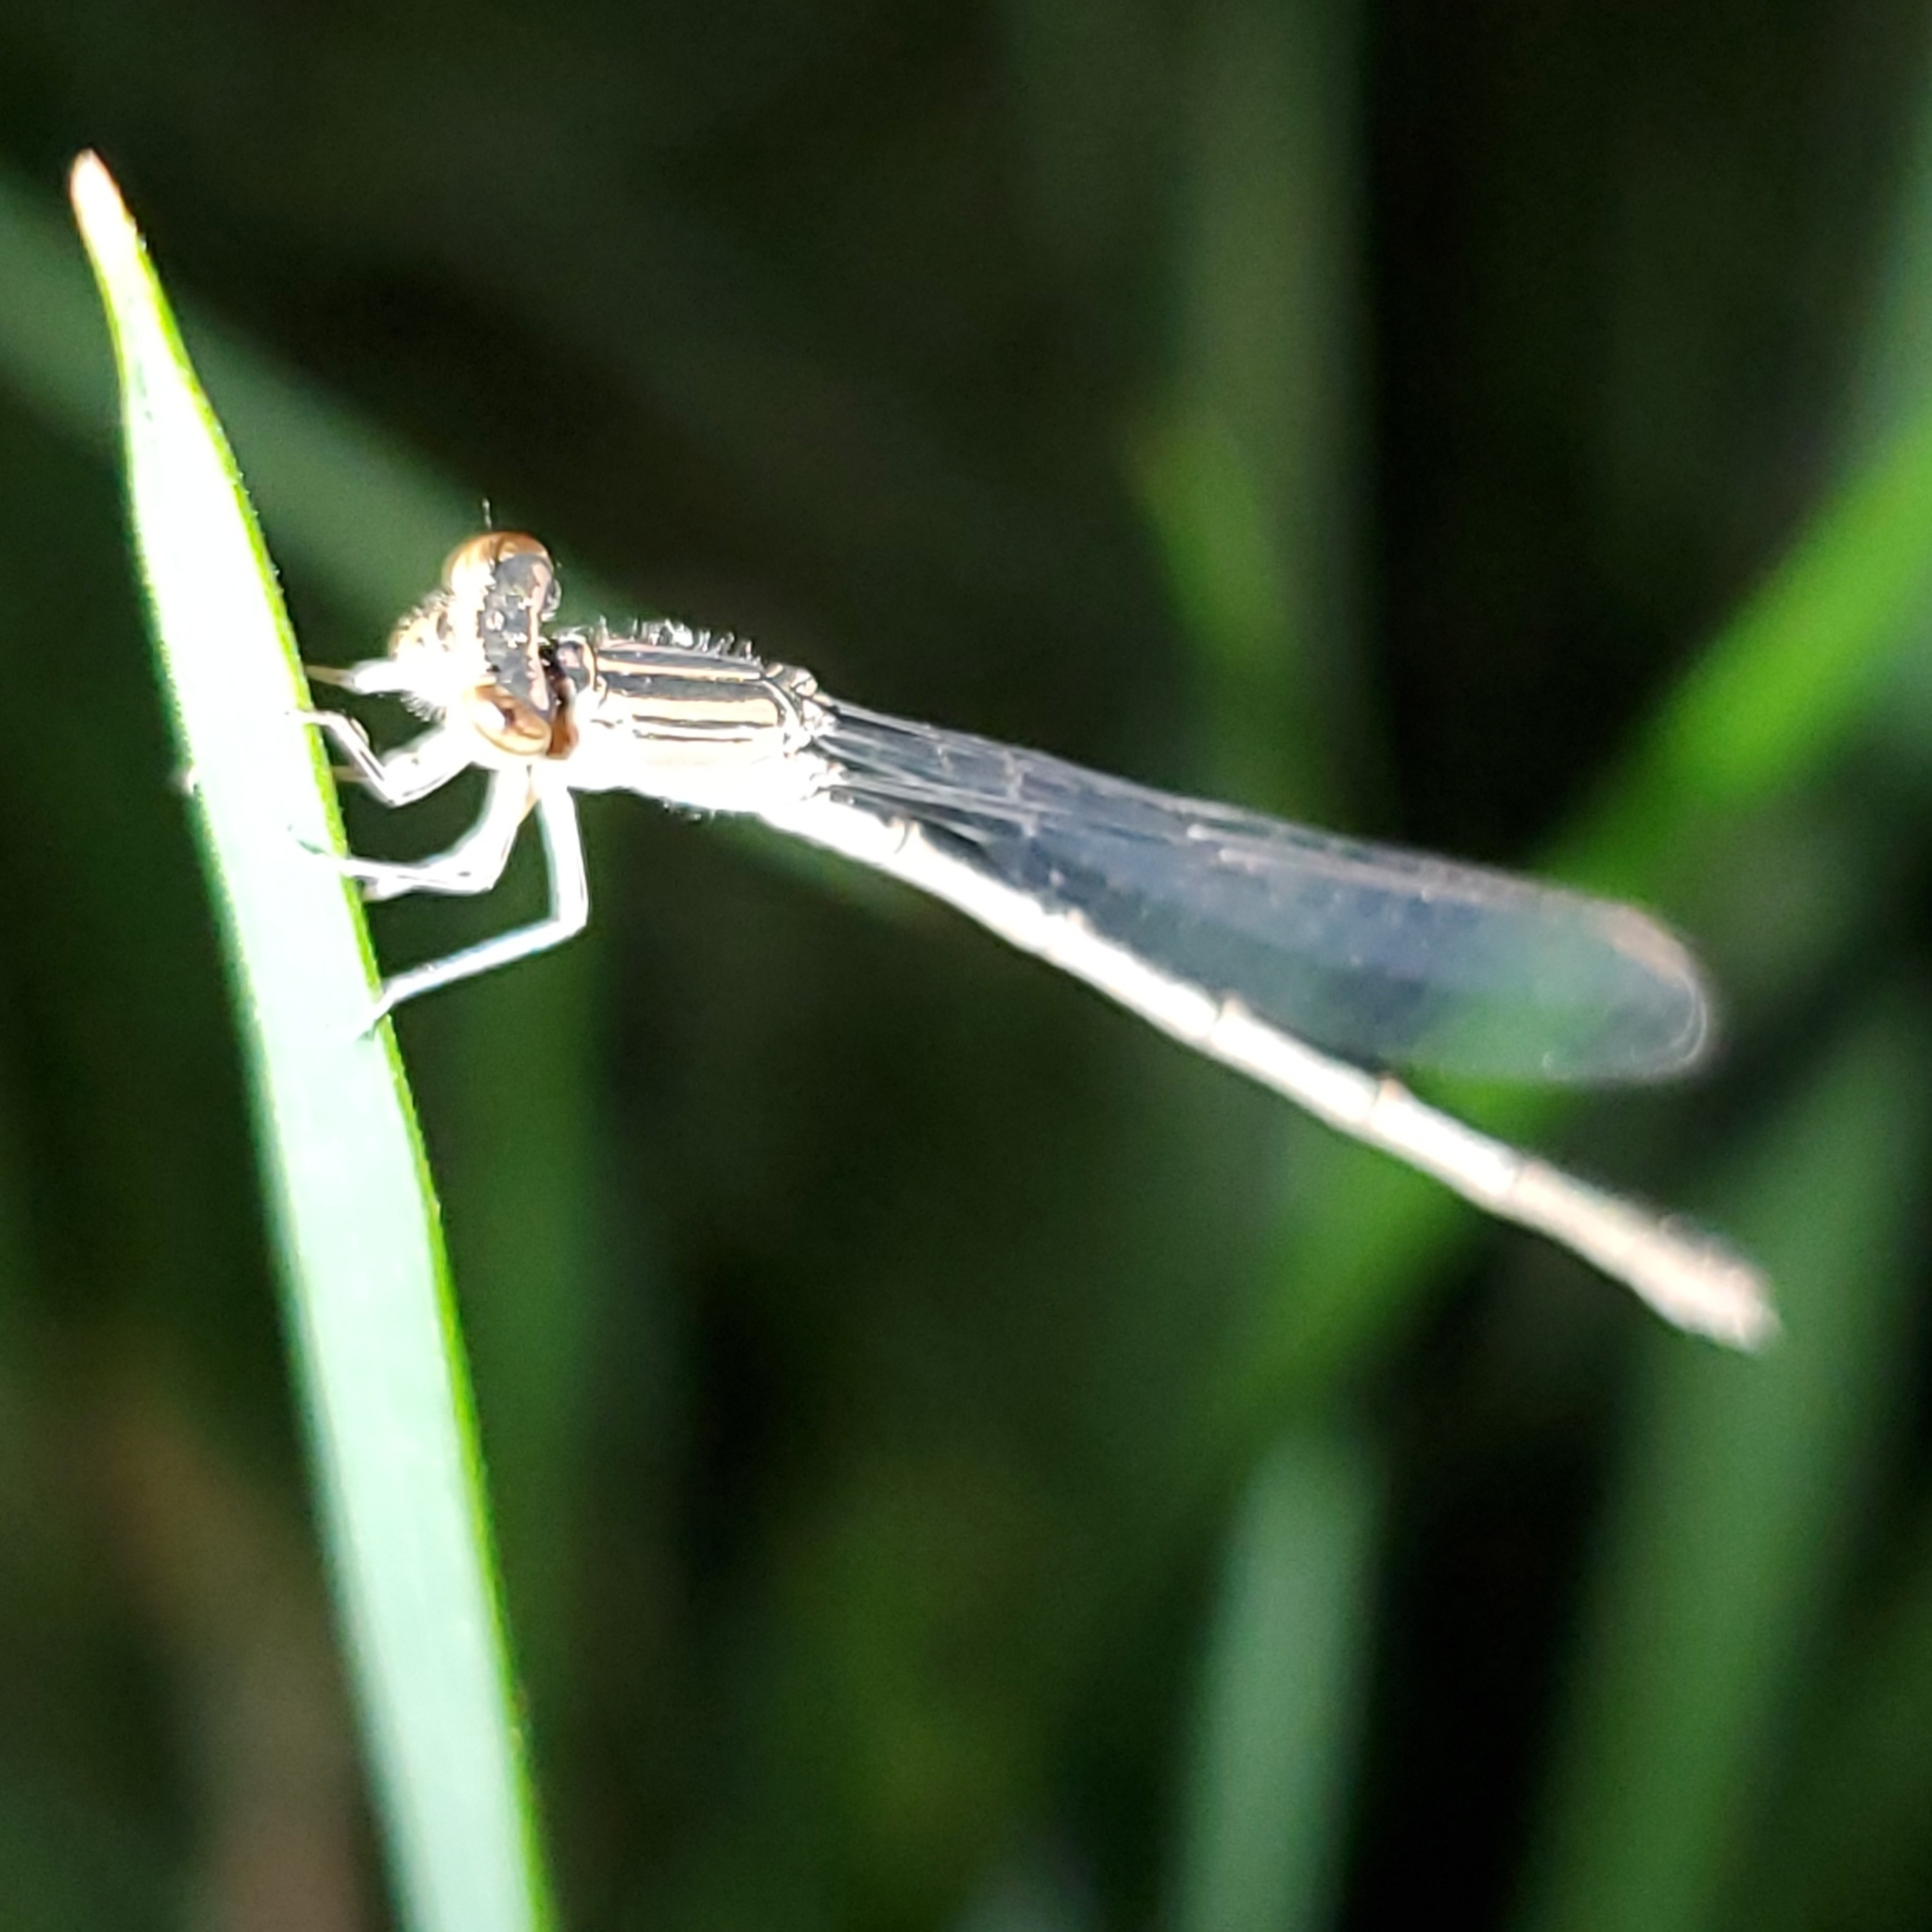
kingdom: Animalia
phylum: Arthropoda
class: Insecta
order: Odonata
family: Coenagrionidae
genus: Enallagma
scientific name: Enallagma basidens
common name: Double-striped bluet
